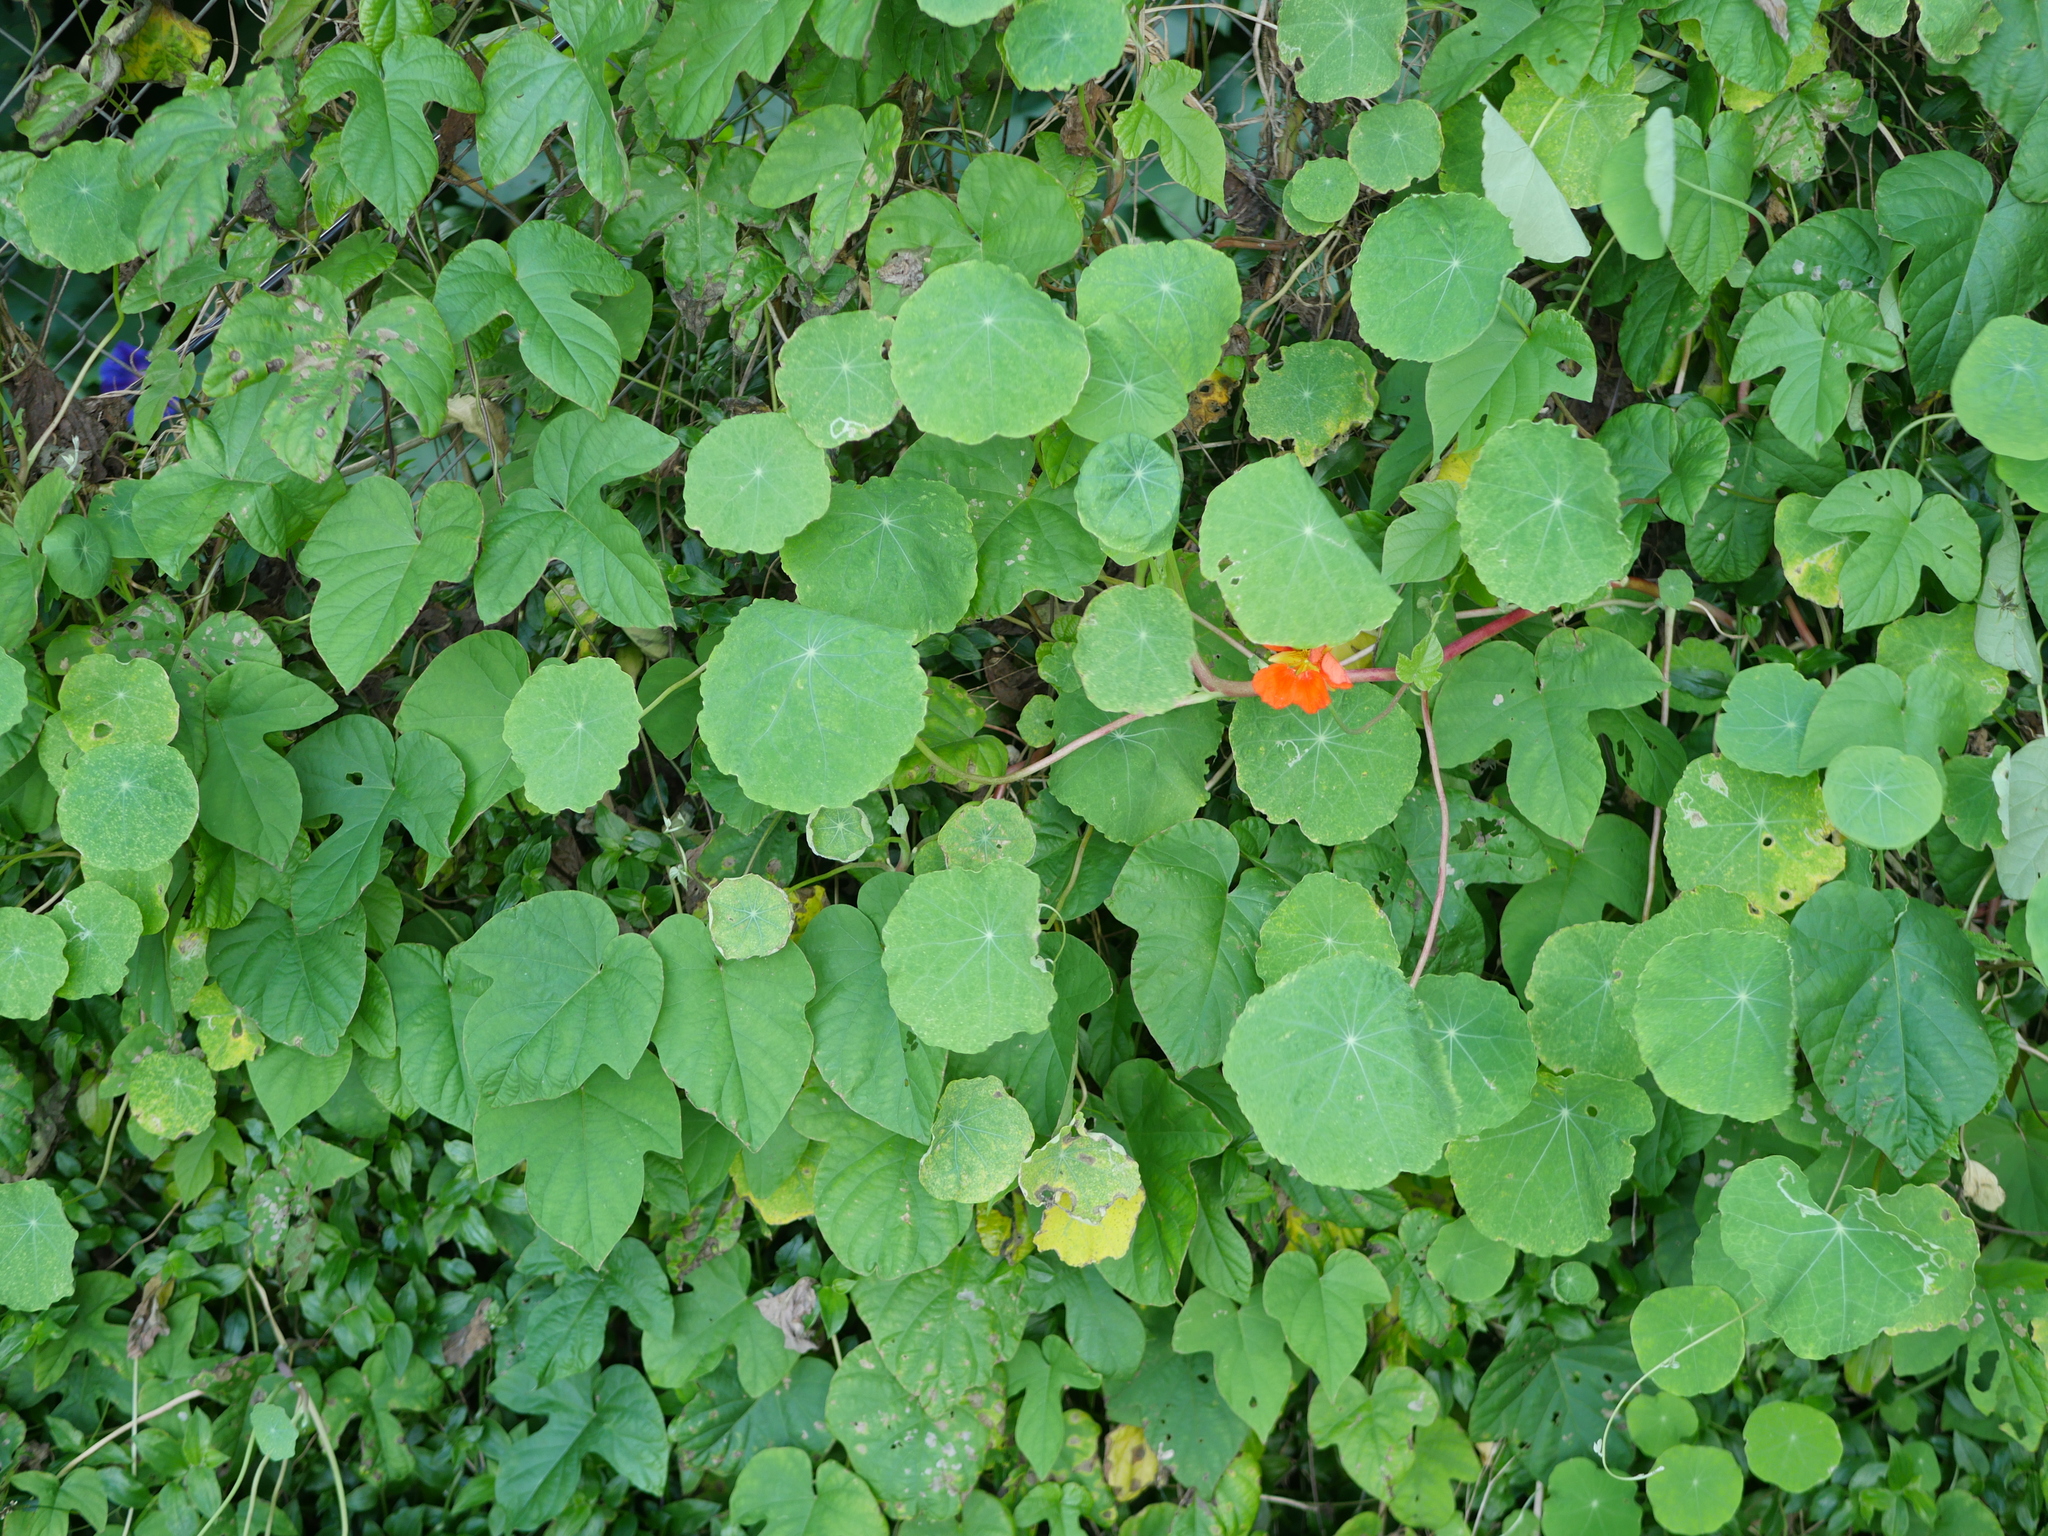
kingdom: Plantae
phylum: Tracheophyta
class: Magnoliopsida
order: Brassicales
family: Tropaeolaceae
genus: Tropaeolum
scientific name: Tropaeolum majus
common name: Nasturtium
